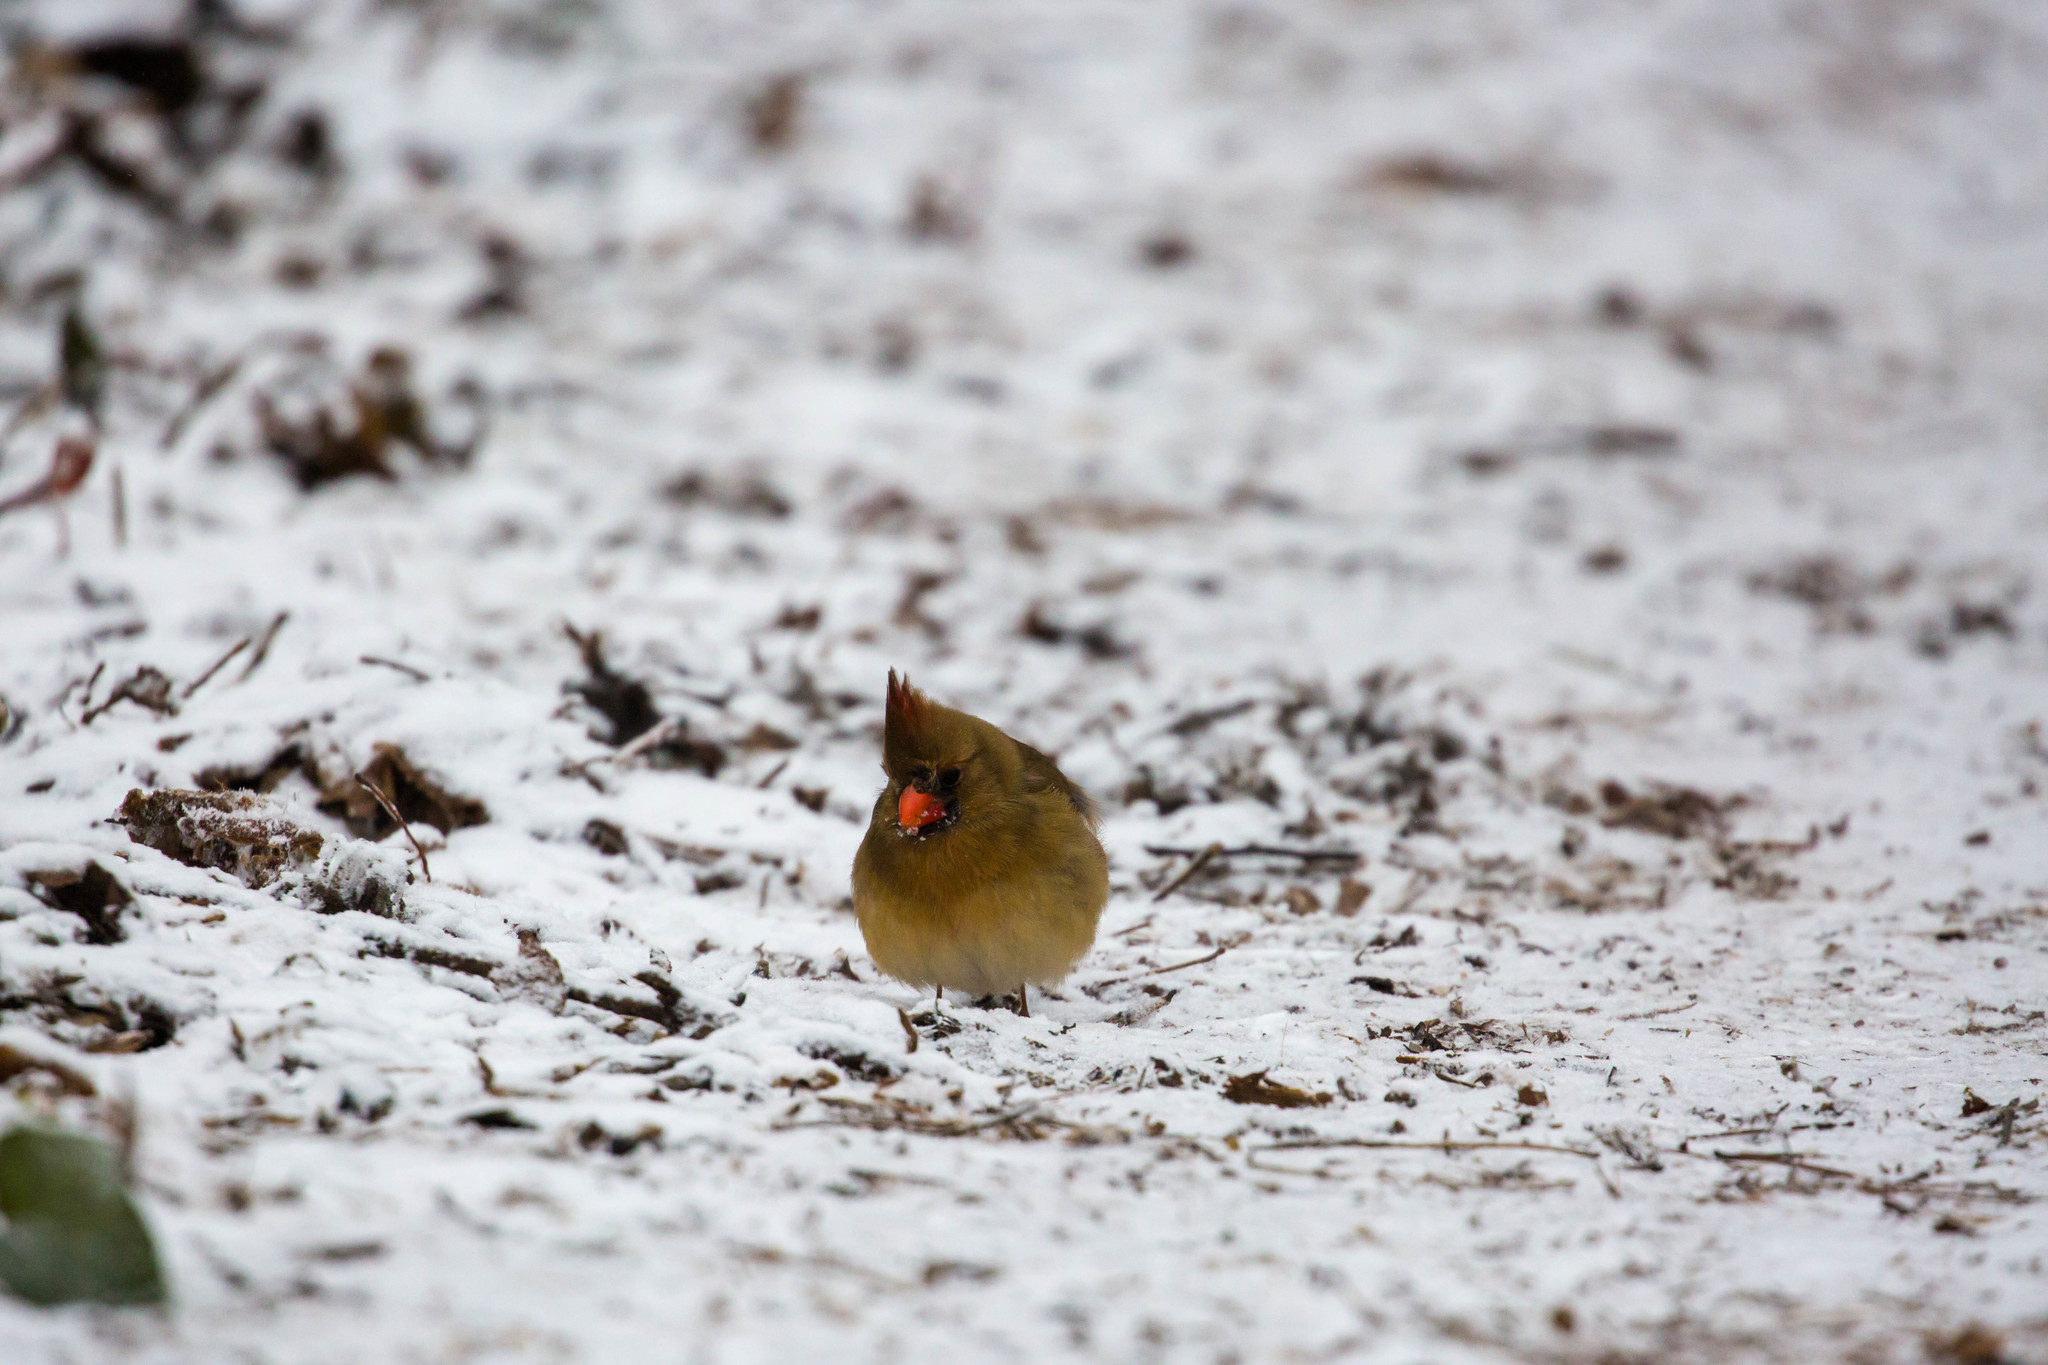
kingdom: Animalia
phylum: Chordata
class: Aves
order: Passeriformes
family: Cardinalidae
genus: Cardinalis
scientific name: Cardinalis cardinalis
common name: Northern cardinal
